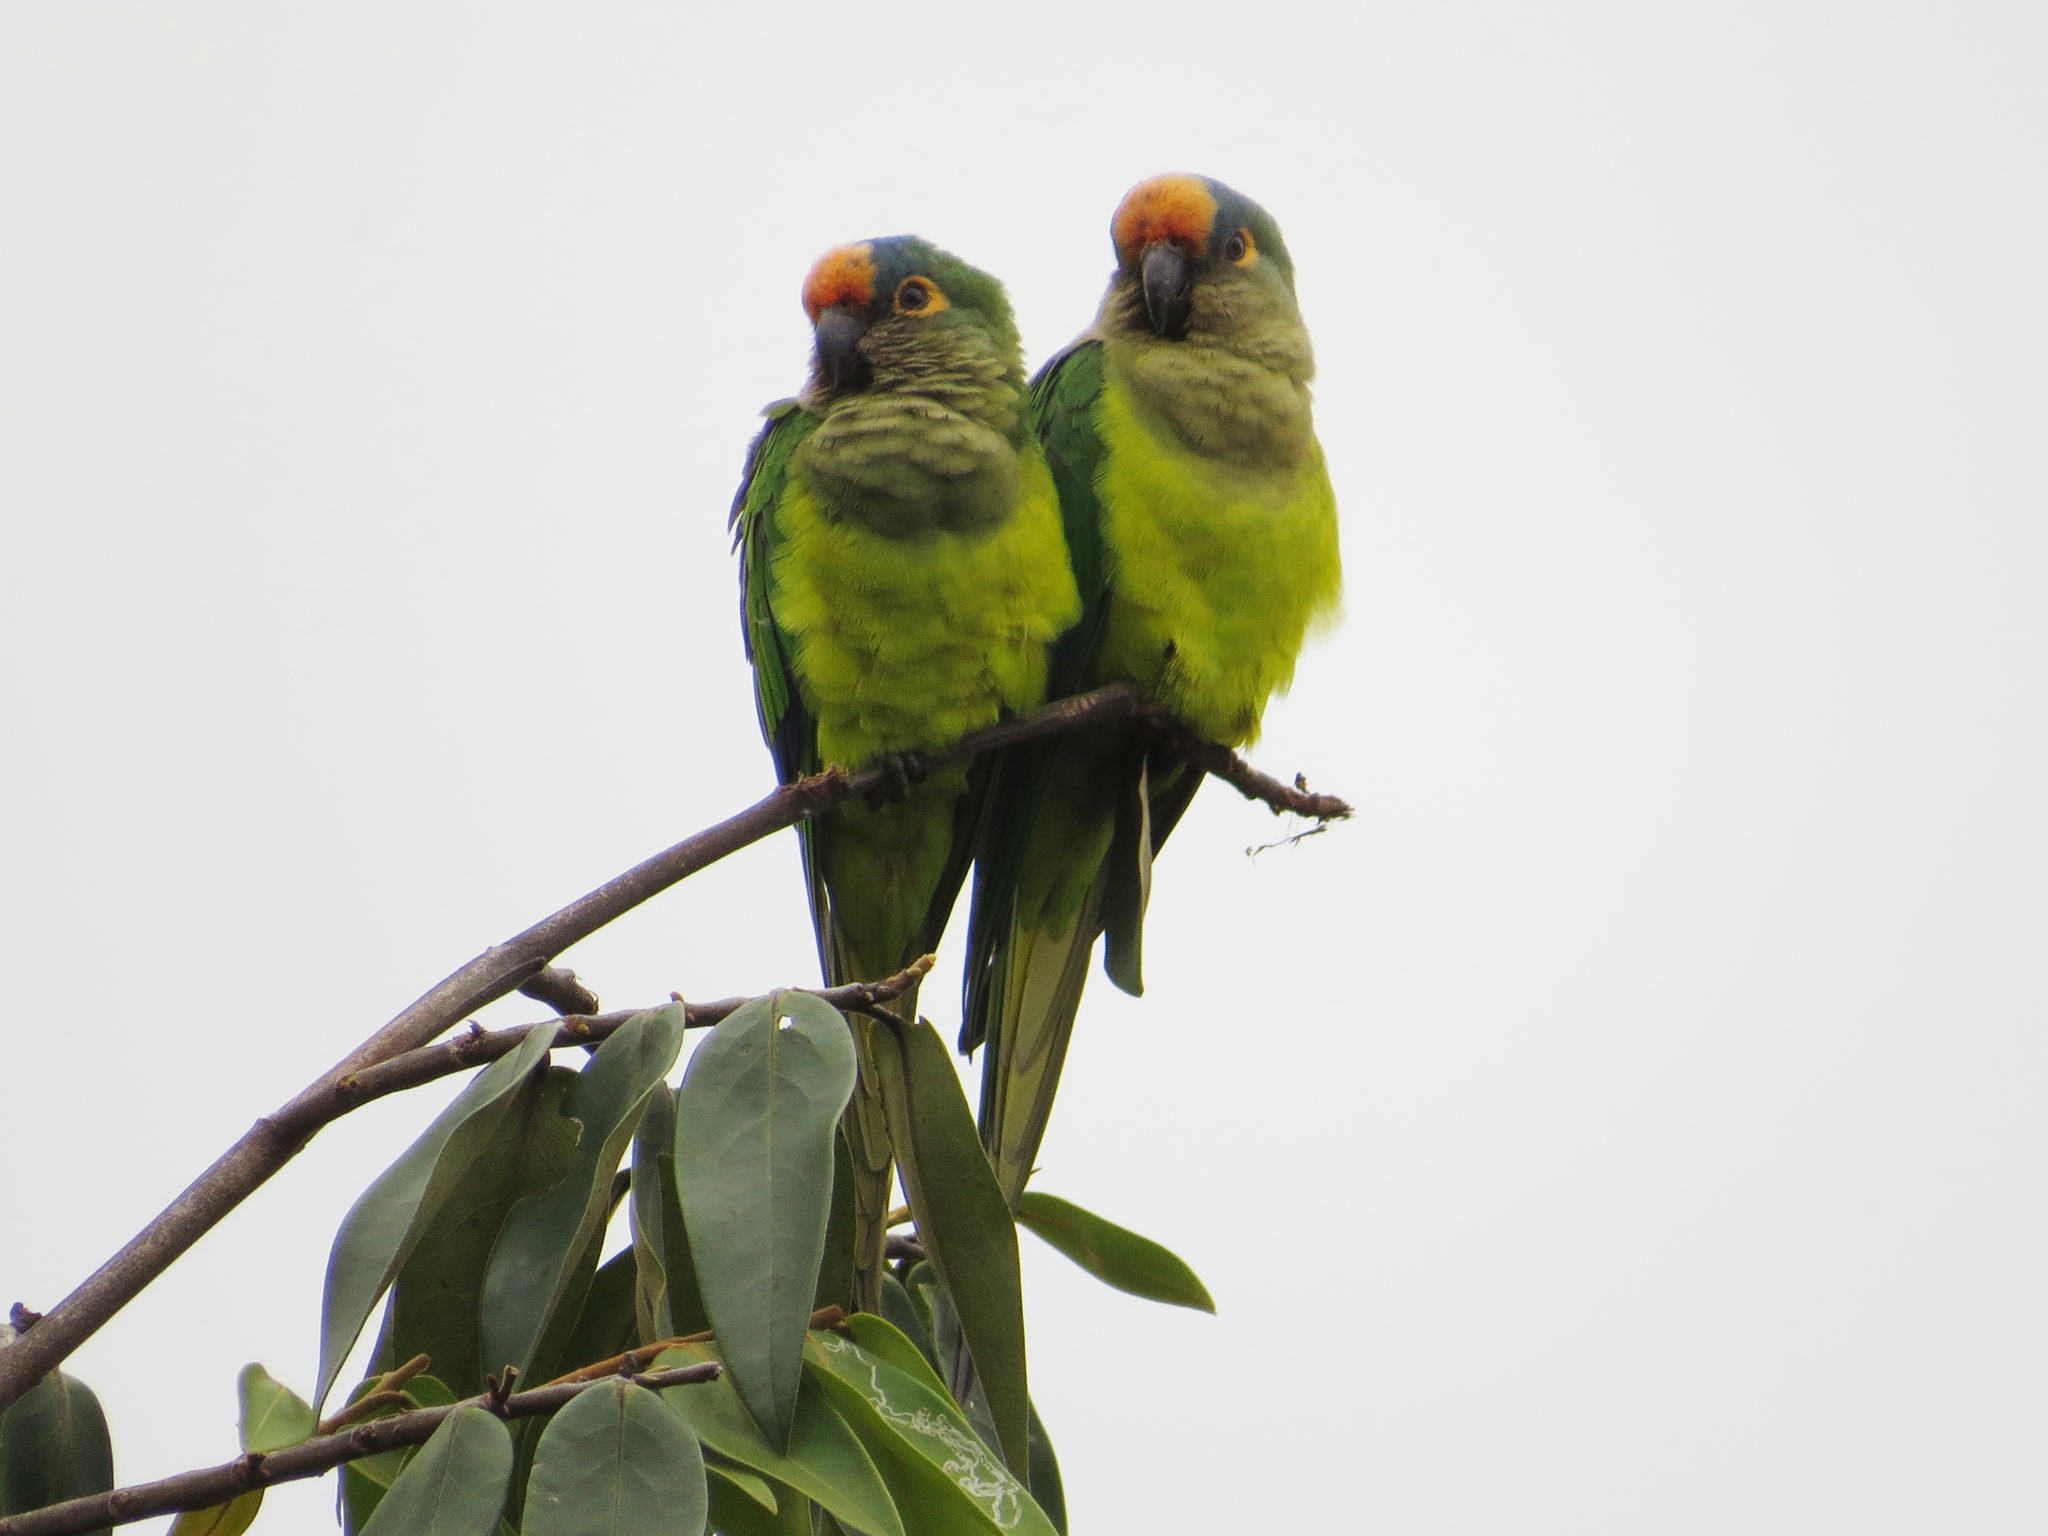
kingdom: Animalia
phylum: Chordata
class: Aves
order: Psittaciformes
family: Psittacidae
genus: Aratinga
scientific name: Aratinga aurea
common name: Peach-fronted parakeet
